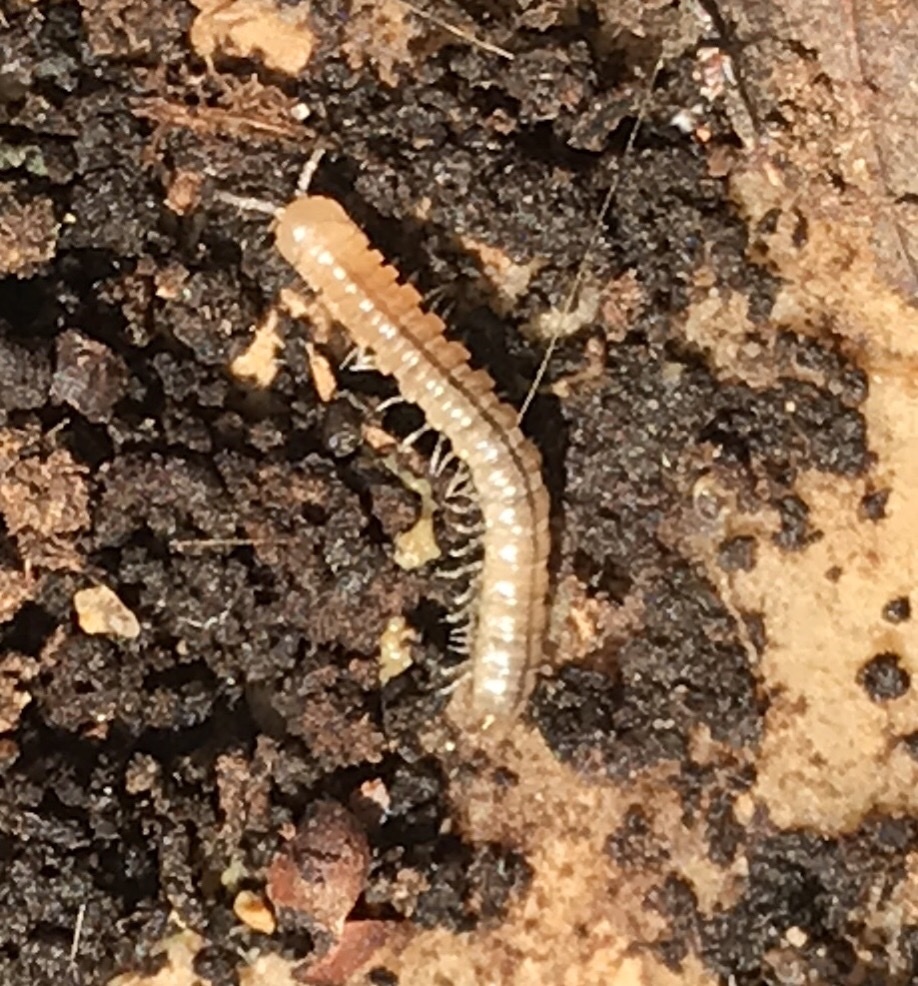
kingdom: Animalia
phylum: Arthropoda
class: Diplopoda
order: Polydesmida
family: Paradoxosomatidae
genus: Oxidus
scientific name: Oxidus gracilis
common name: Greenhouse millipede
